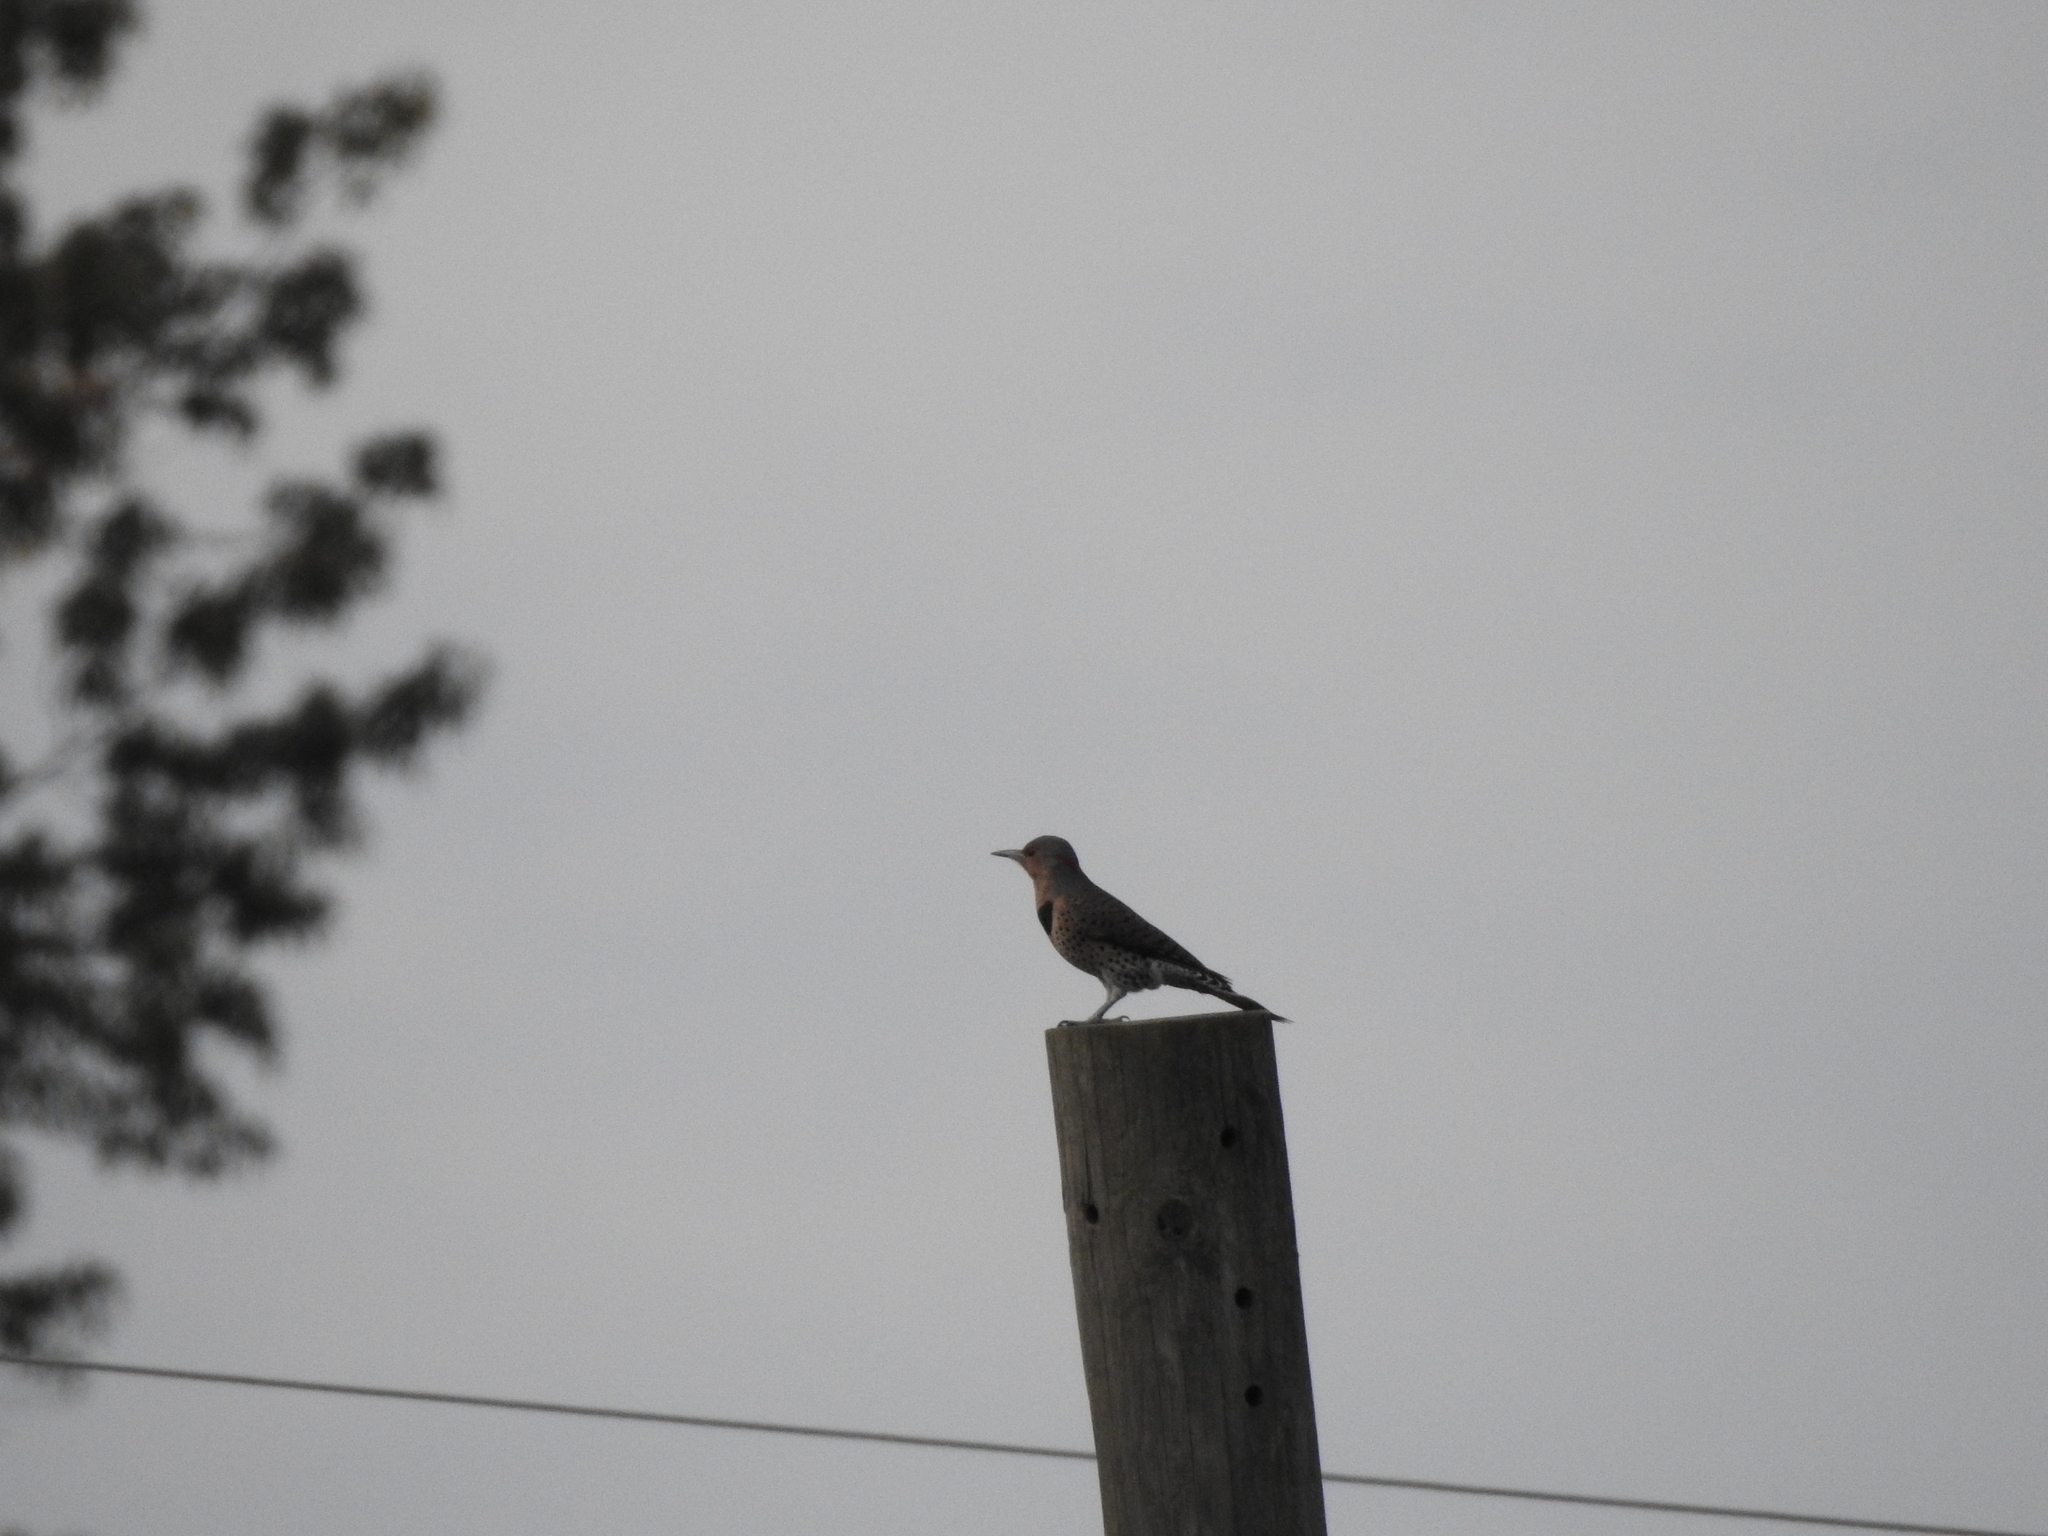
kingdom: Animalia
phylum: Chordata
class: Aves
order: Piciformes
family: Picidae
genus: Colaptes
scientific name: Colaptes auratus
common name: Northern flicker
